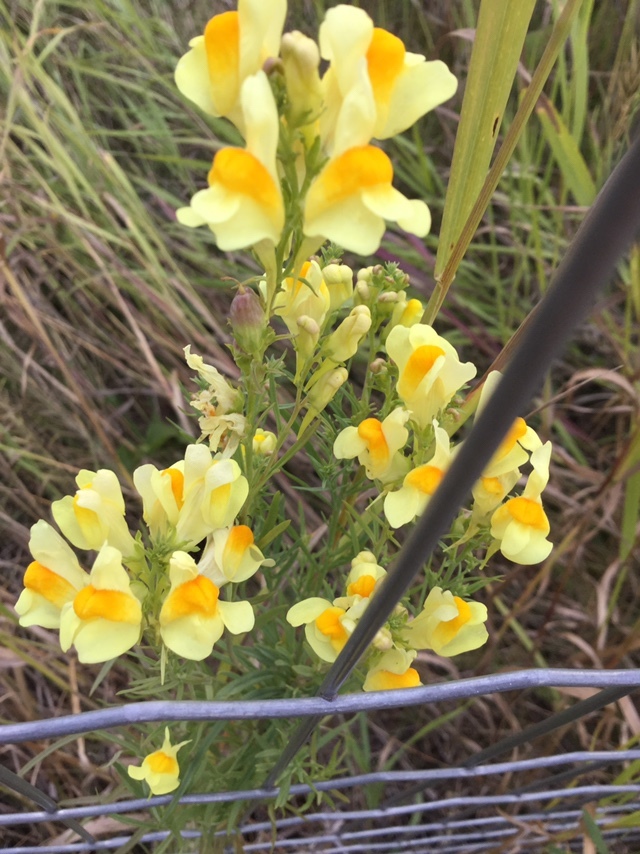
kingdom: Plantae
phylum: Tracheophyta
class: Magnoliopsida
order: Lamiales
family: Plantaginaceae
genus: Linaria
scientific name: Linaria vulgaris
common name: Butter and eggs
